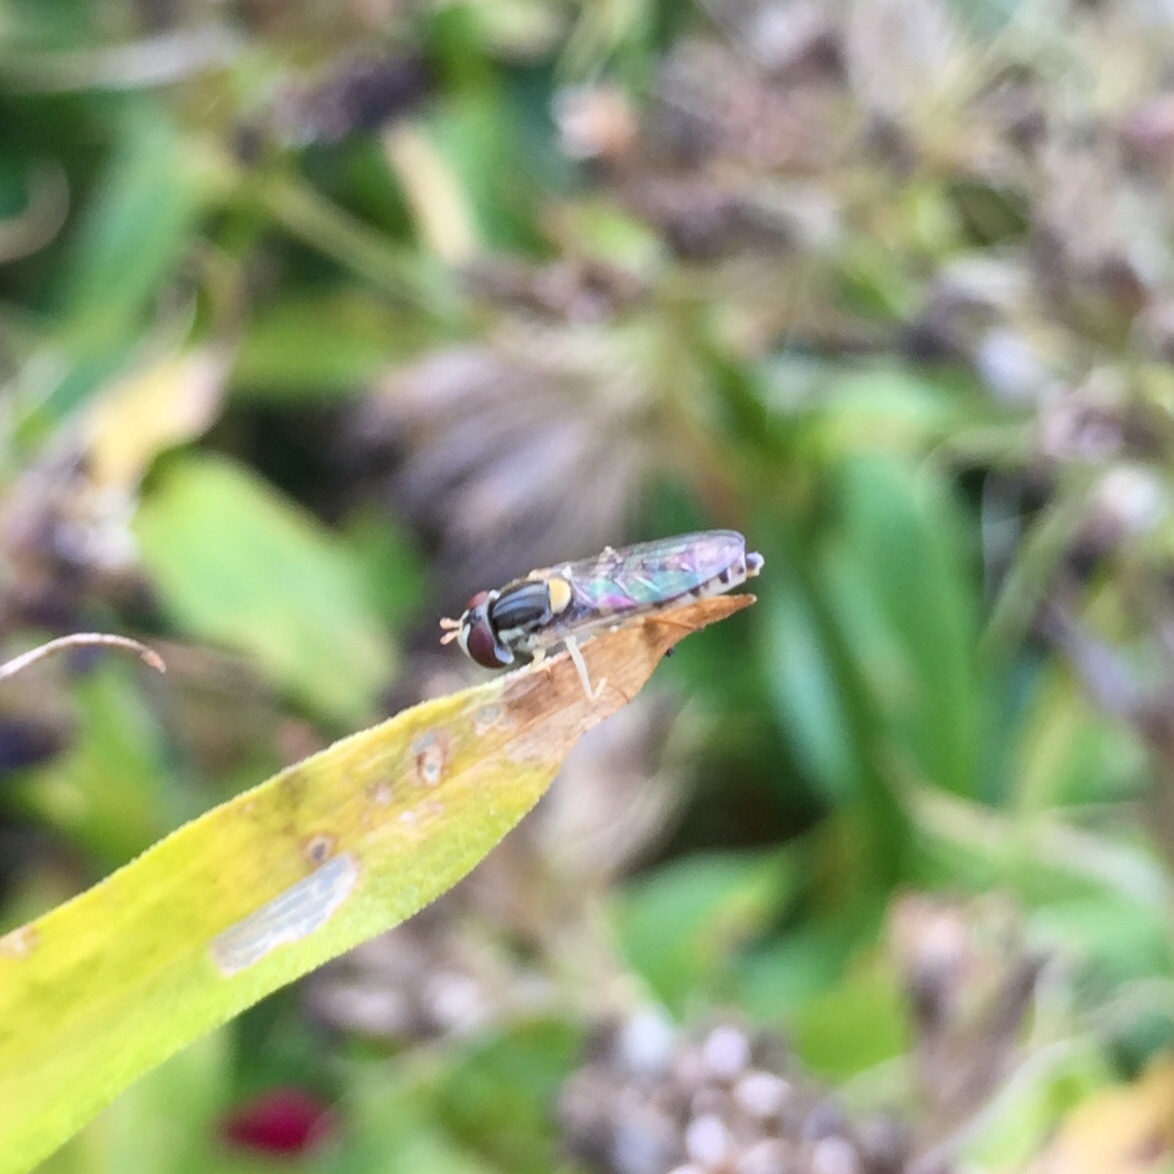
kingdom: Animalia
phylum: Arthropoda
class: Insecta
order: Diptera
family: Syrphidae
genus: Sphaerophoria
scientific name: Sphaerophoria
